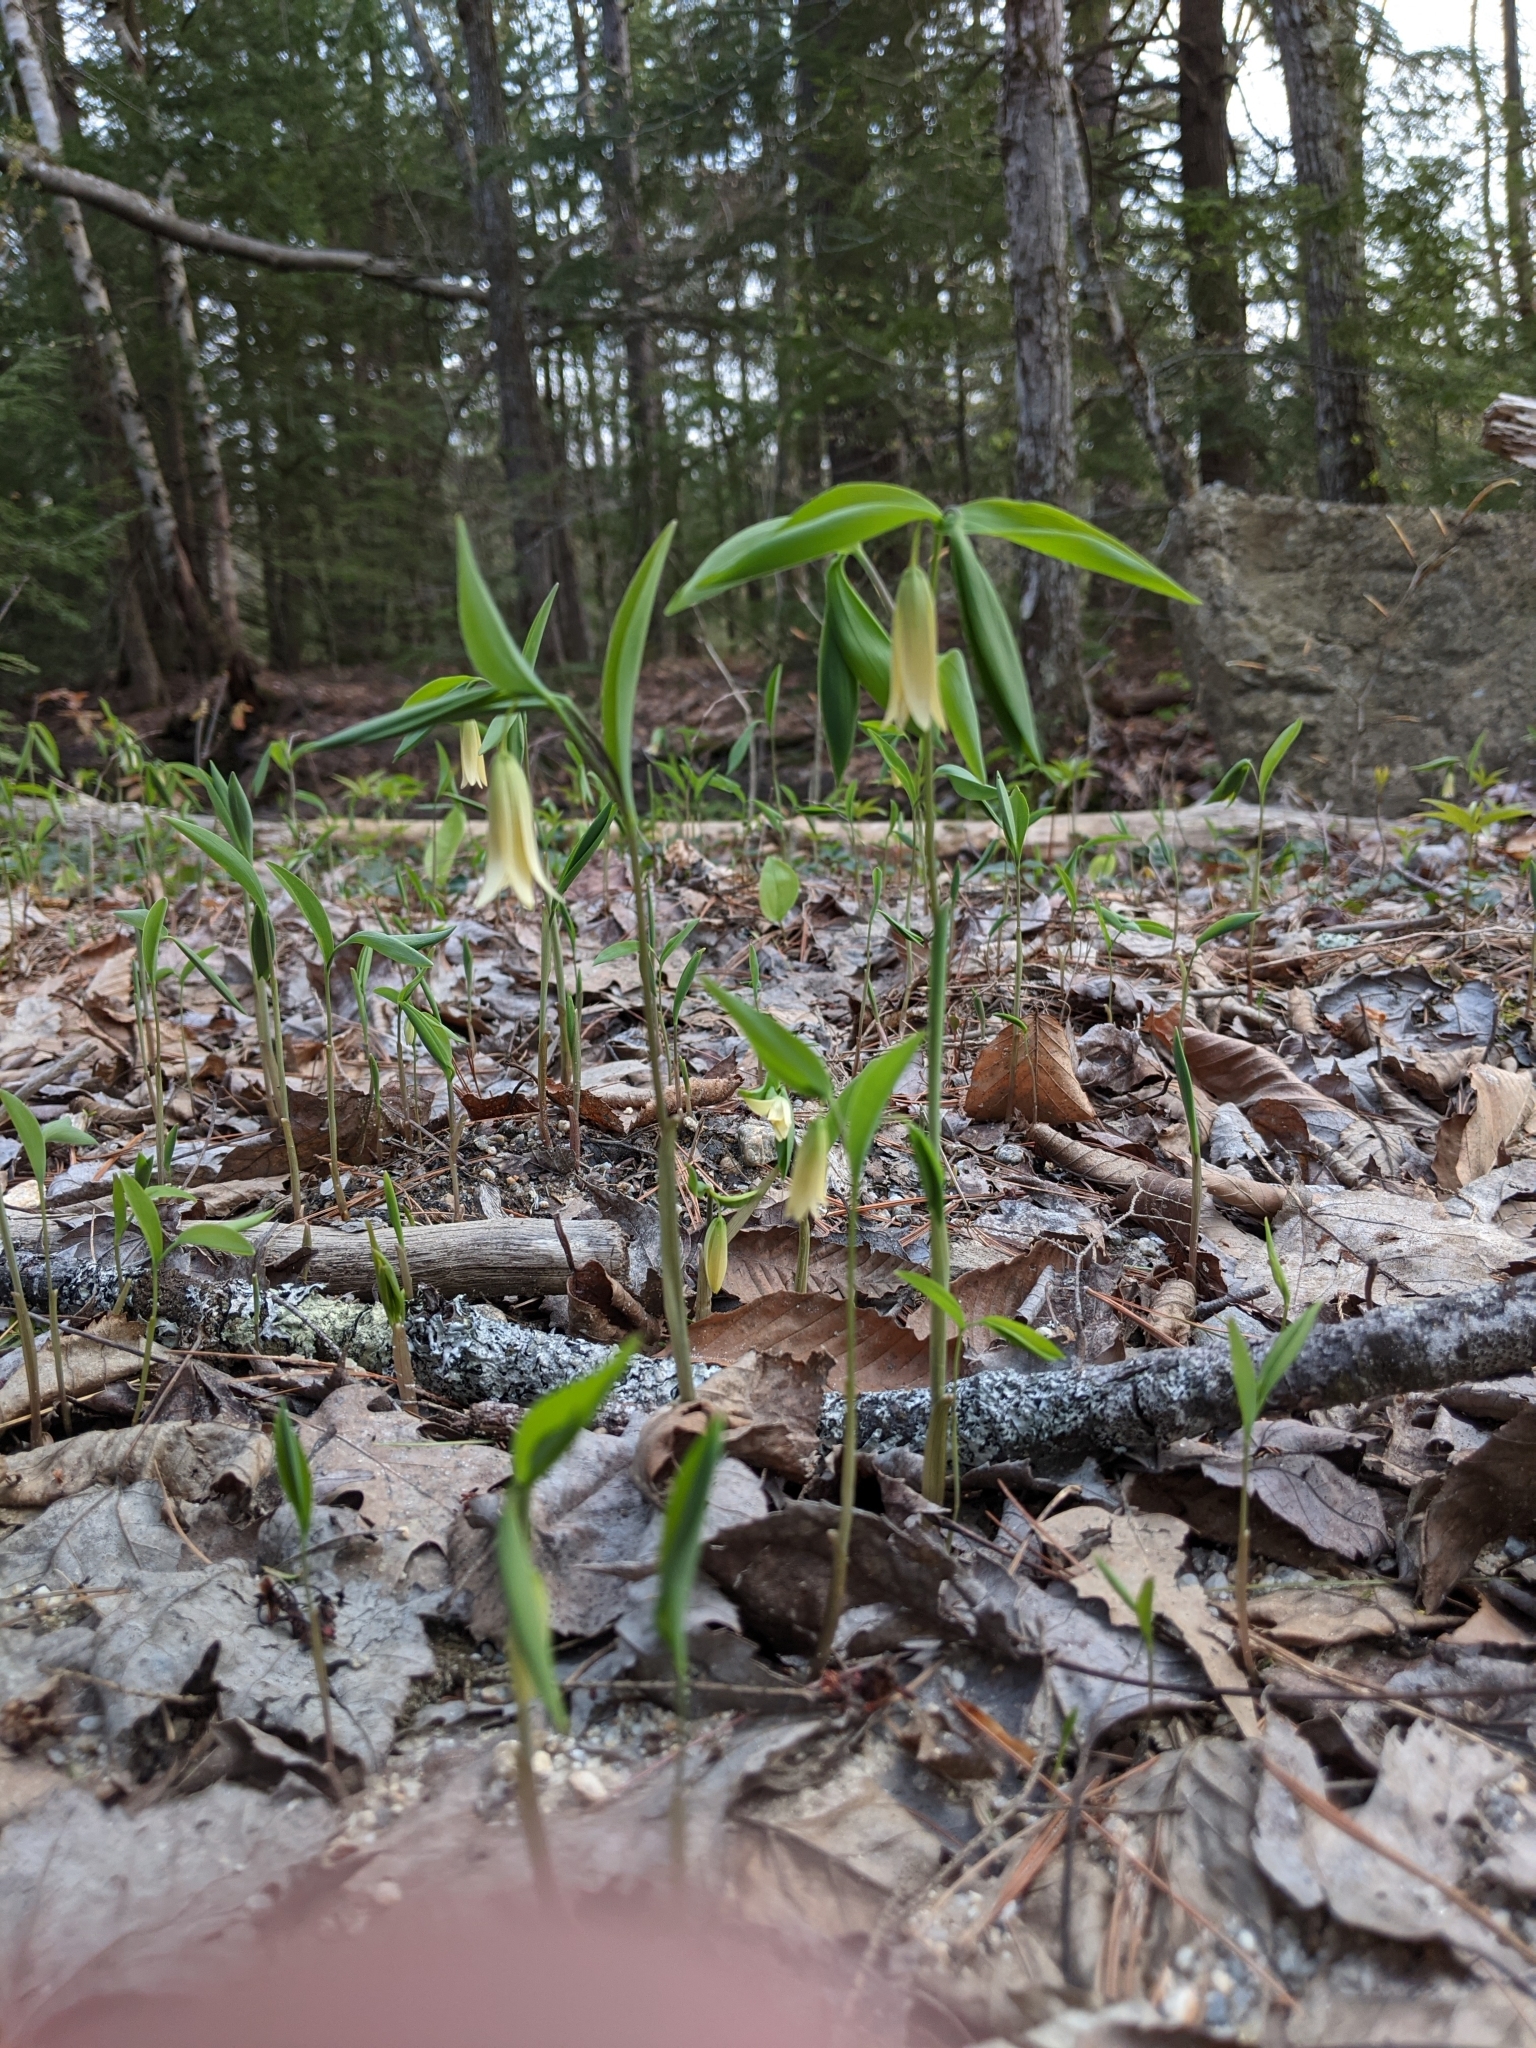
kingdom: Plantae
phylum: Tracheophyta
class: Liliopsida
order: Liliales
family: Colchicaceae
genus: Uvularia
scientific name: Uvularia sessilifolia
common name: Straw-lily
